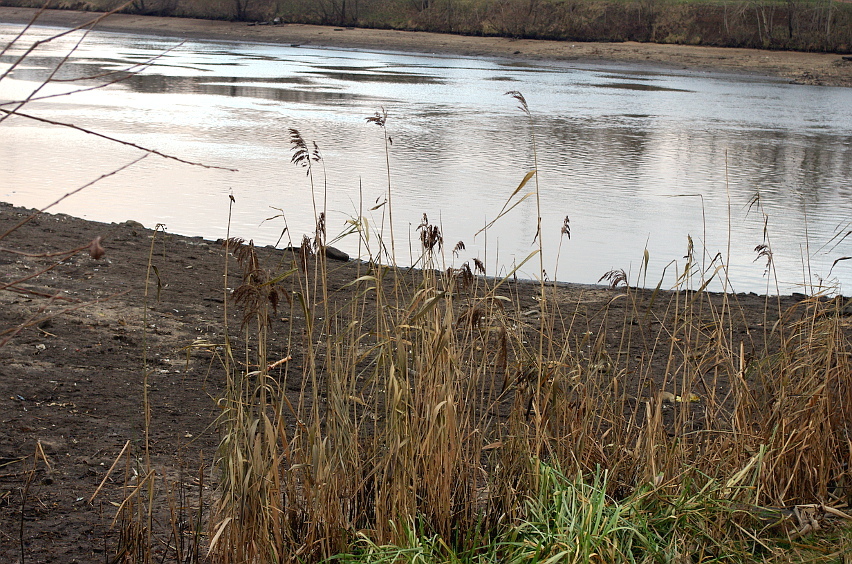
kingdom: Plantae
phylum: Tracheophyta
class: Liliopsida
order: Poales
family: Poaceae
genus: Phragmites
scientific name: Phragmites australis
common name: Common reed
